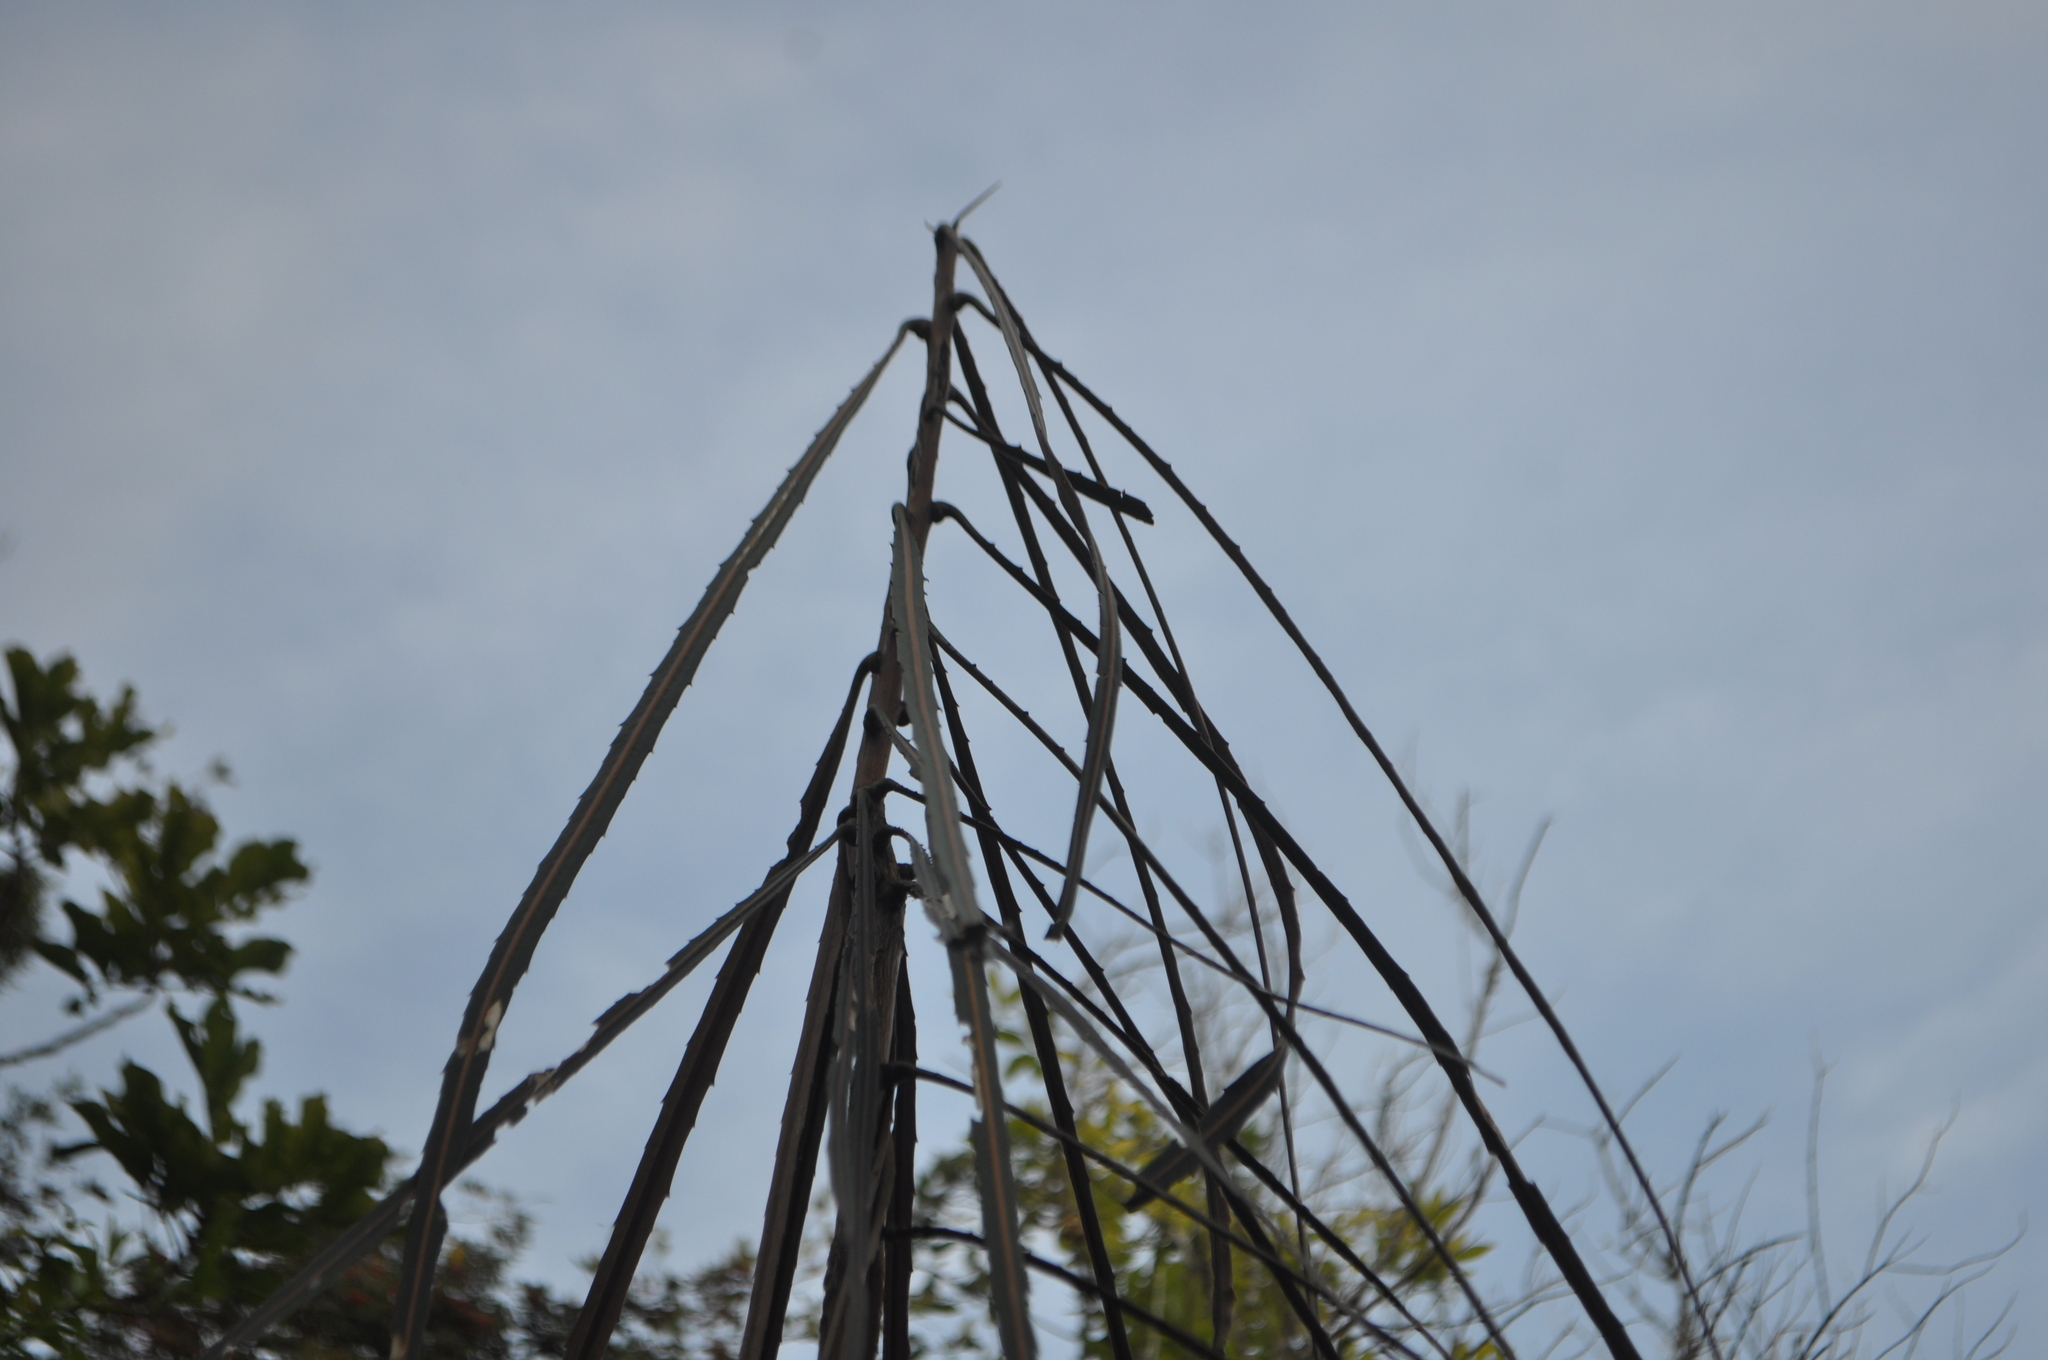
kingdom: Plantae
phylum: Tracheophyta
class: Magnoliopsida
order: Apiales
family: Araliaceae
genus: Pseudopanax
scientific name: Pseudopanax crassifolius
